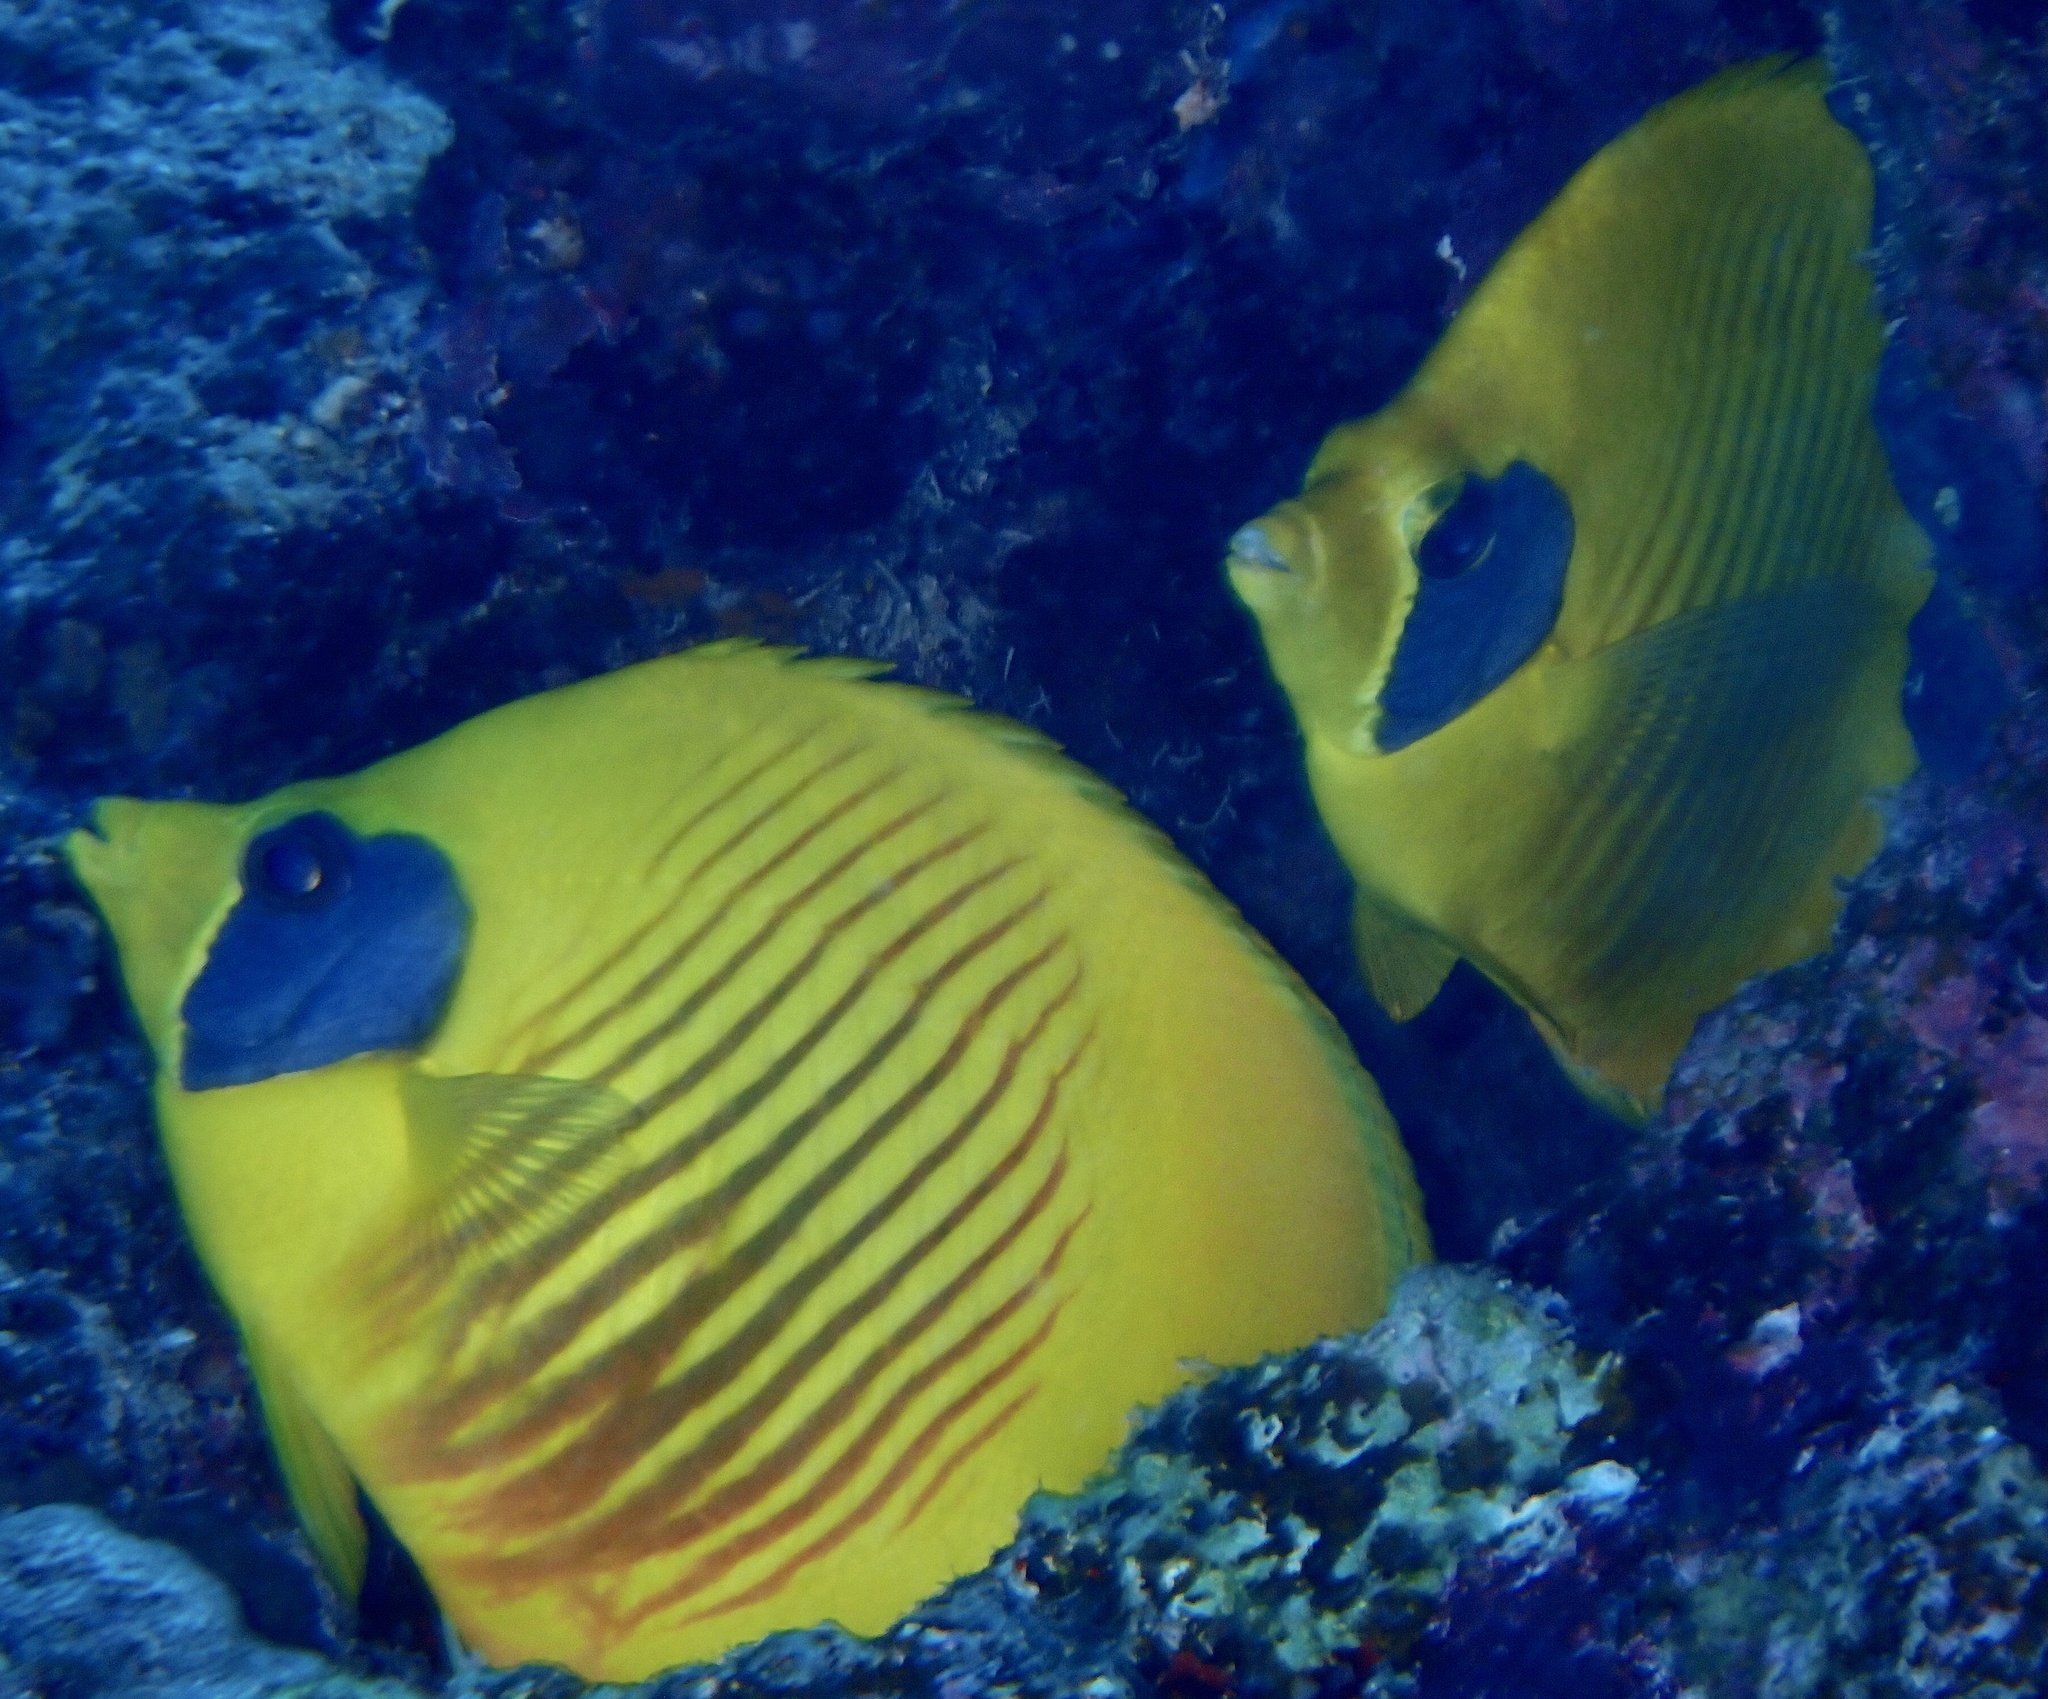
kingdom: Animalia
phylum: Chordata
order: Perciformes
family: Chaetodontidae
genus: Chaetodon
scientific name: Chaetodon semilarvatus
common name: Golden butterflyfish
